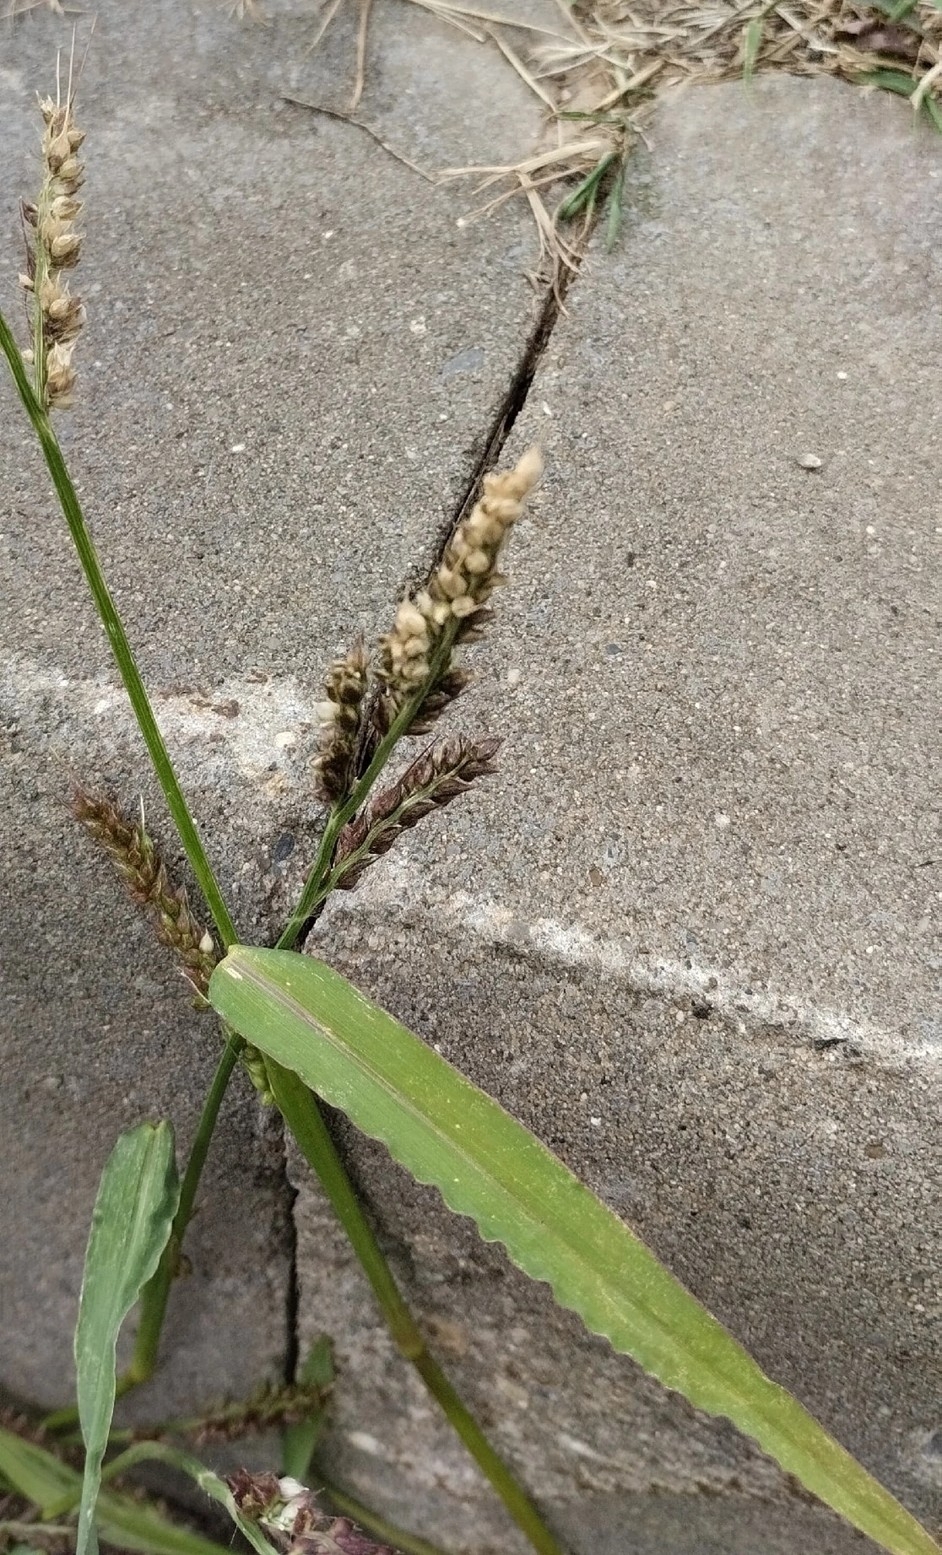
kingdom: Plantae
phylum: Tracheophyta
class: Liliopsida
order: Poales
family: Poaceae
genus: Echinochloa
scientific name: Echinochloa crus-galli
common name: Cockspur
